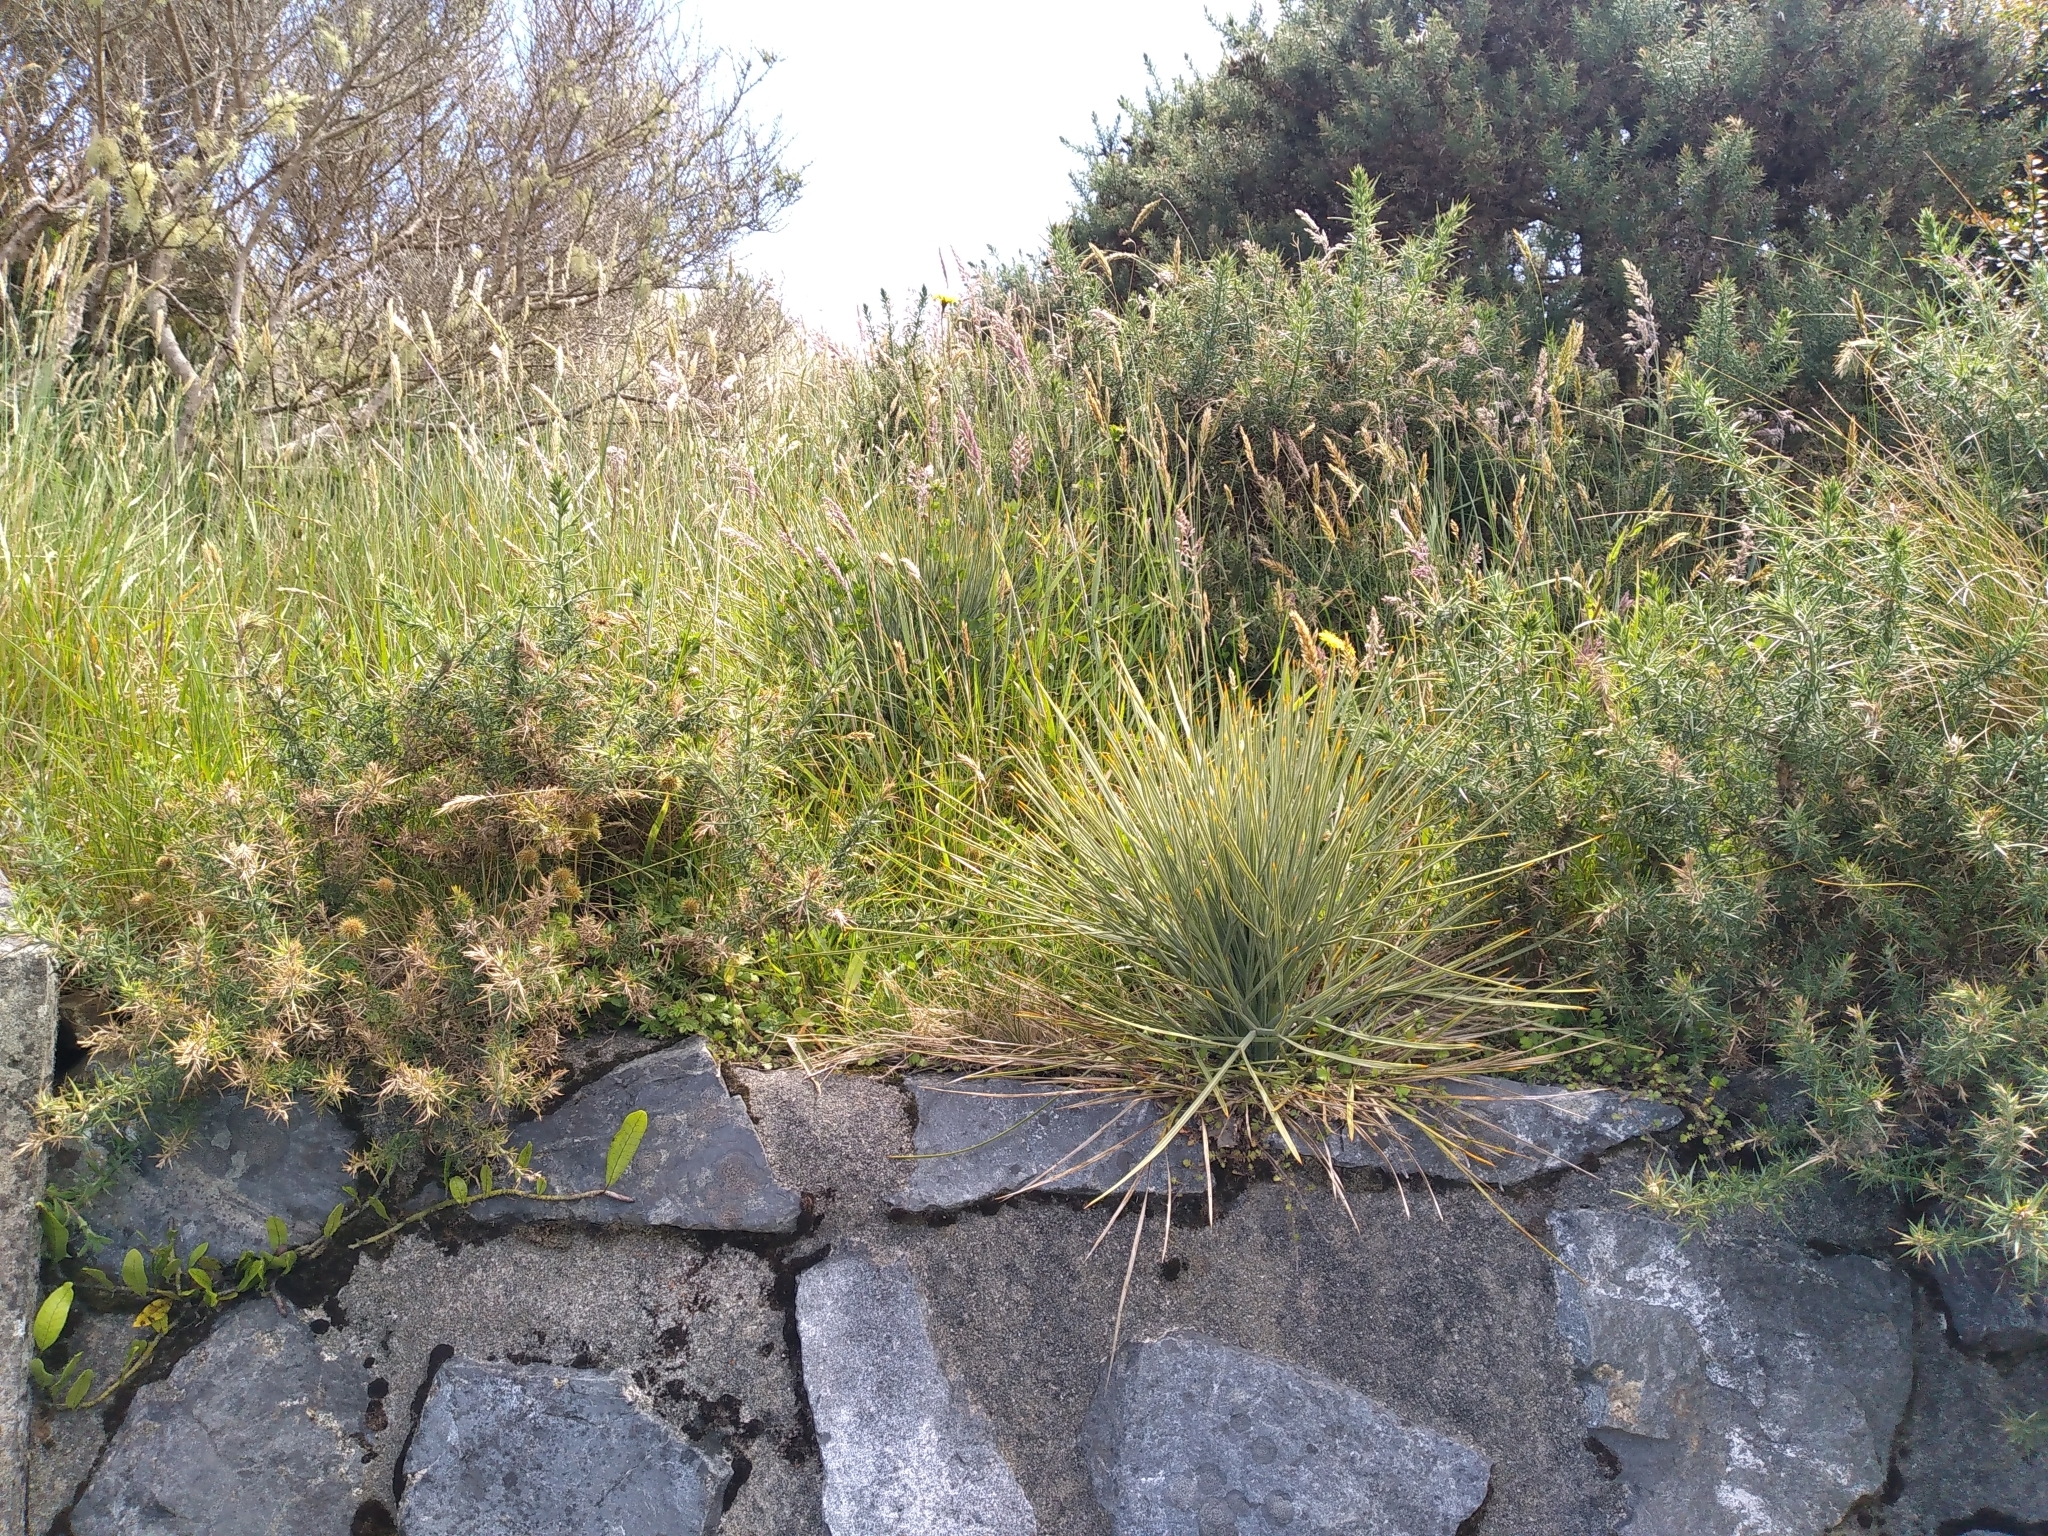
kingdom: Plantae
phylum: Tracheophyta
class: Magnoliopsida
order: Apiales
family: Apiaceae
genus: Aciphylla
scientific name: Aciphylla squarrosa
